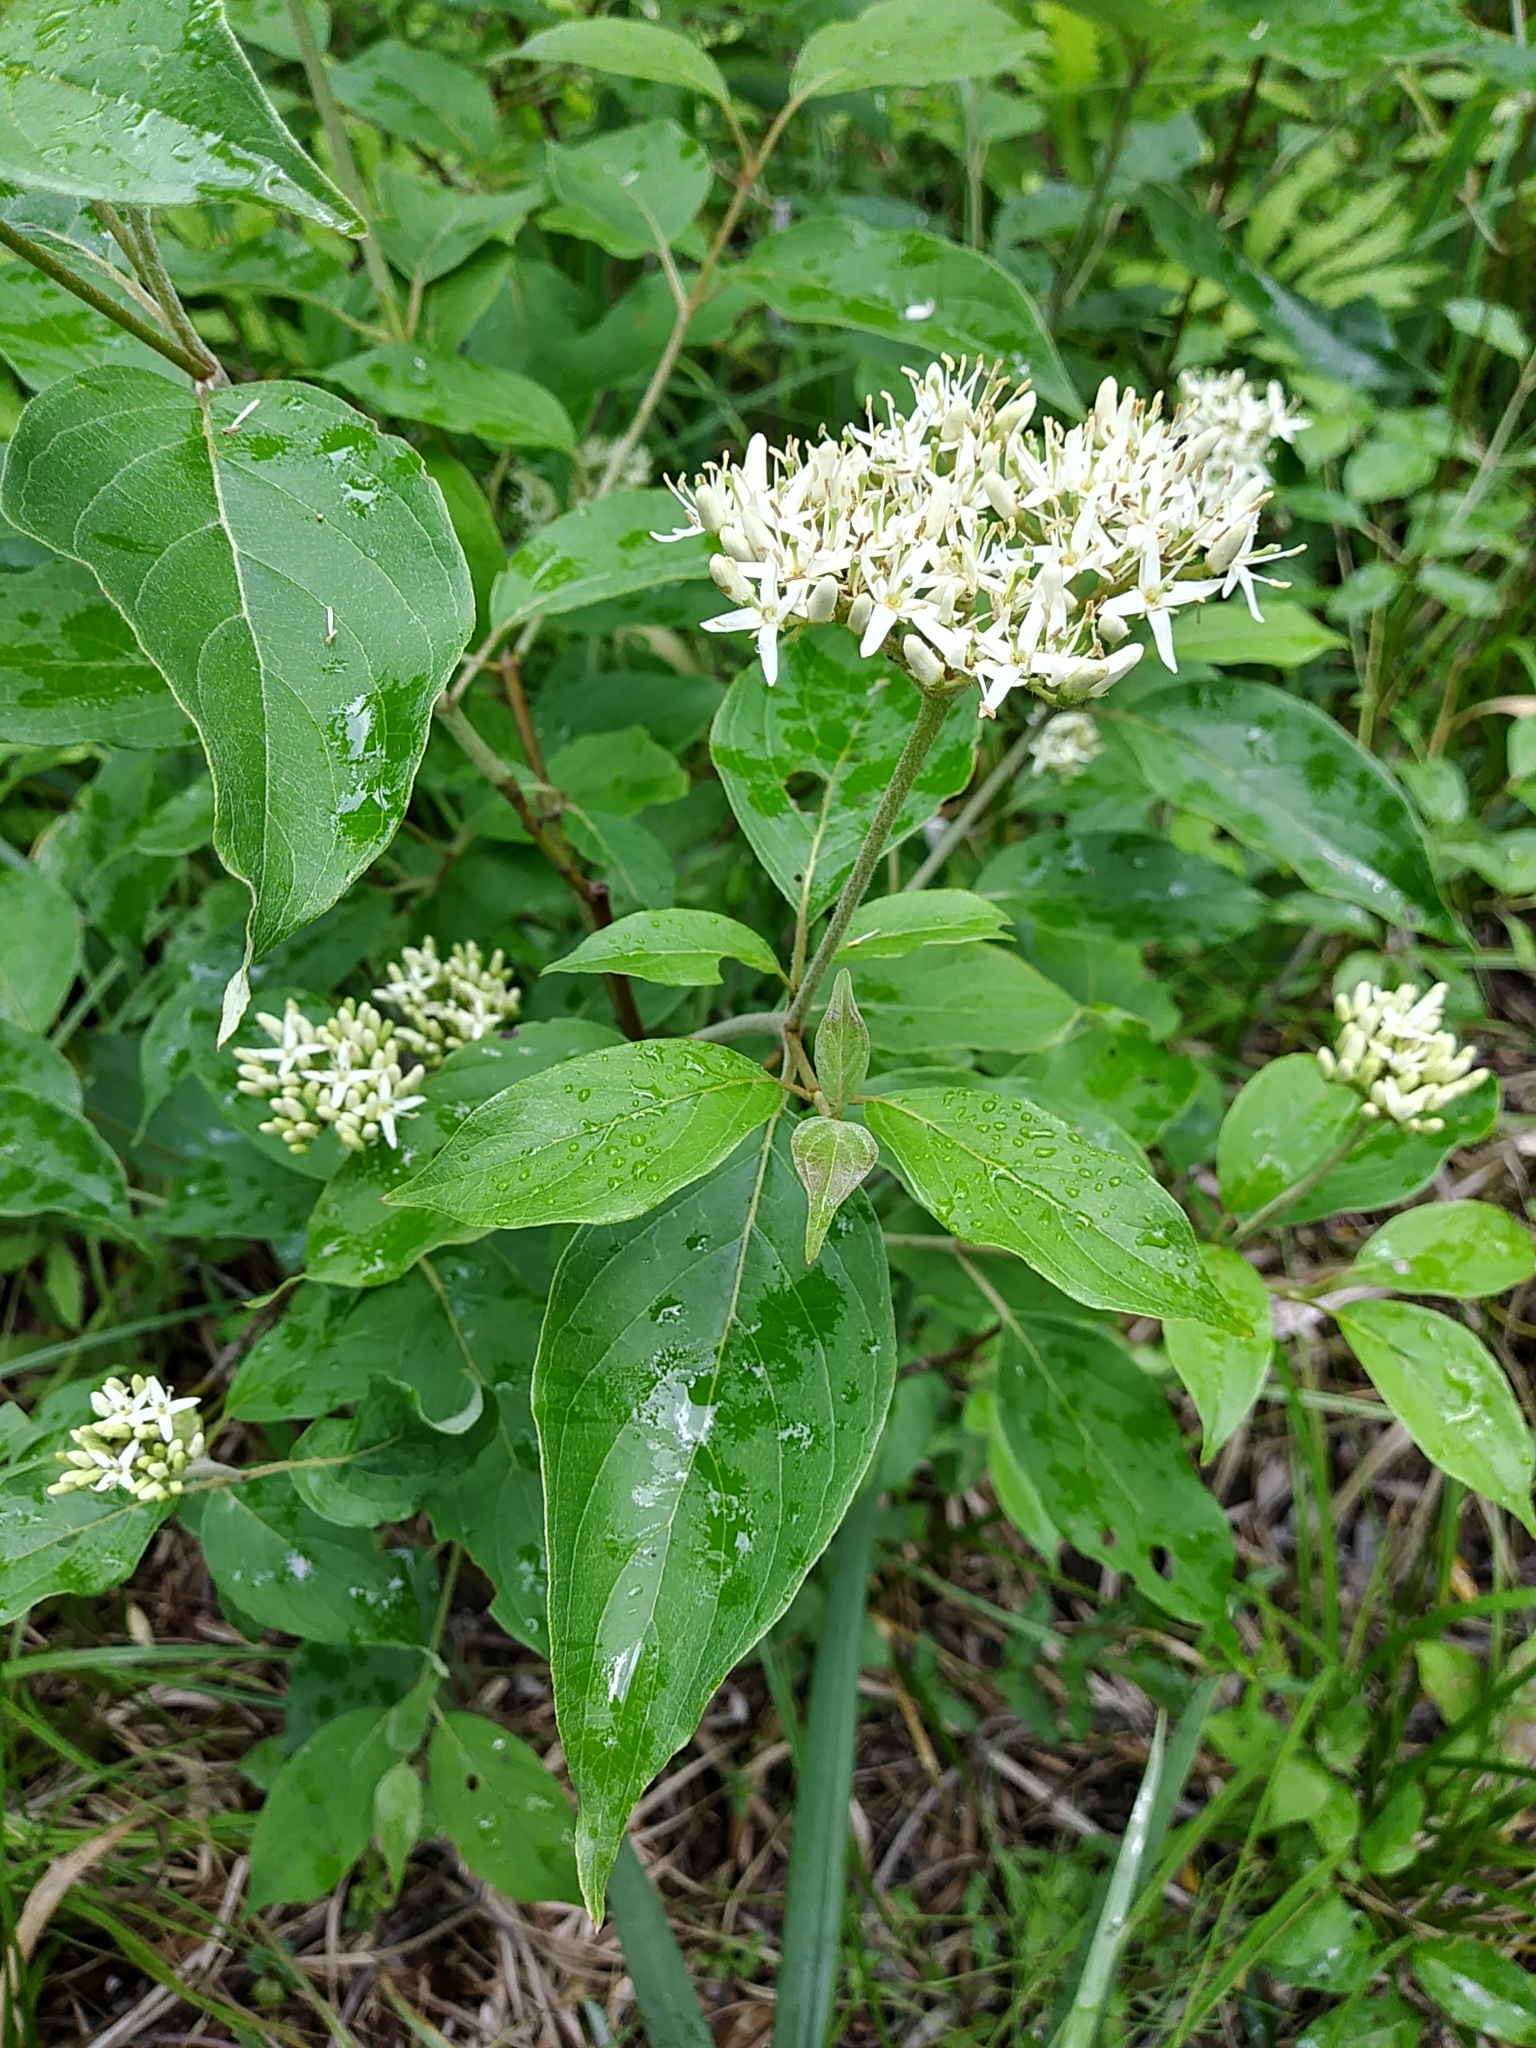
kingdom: Plantae
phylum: Tracheophyta
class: Magnoliopsida
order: Cornales
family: Cornaceae
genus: Cornus
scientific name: Cornus amomum
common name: Silky dogwood
